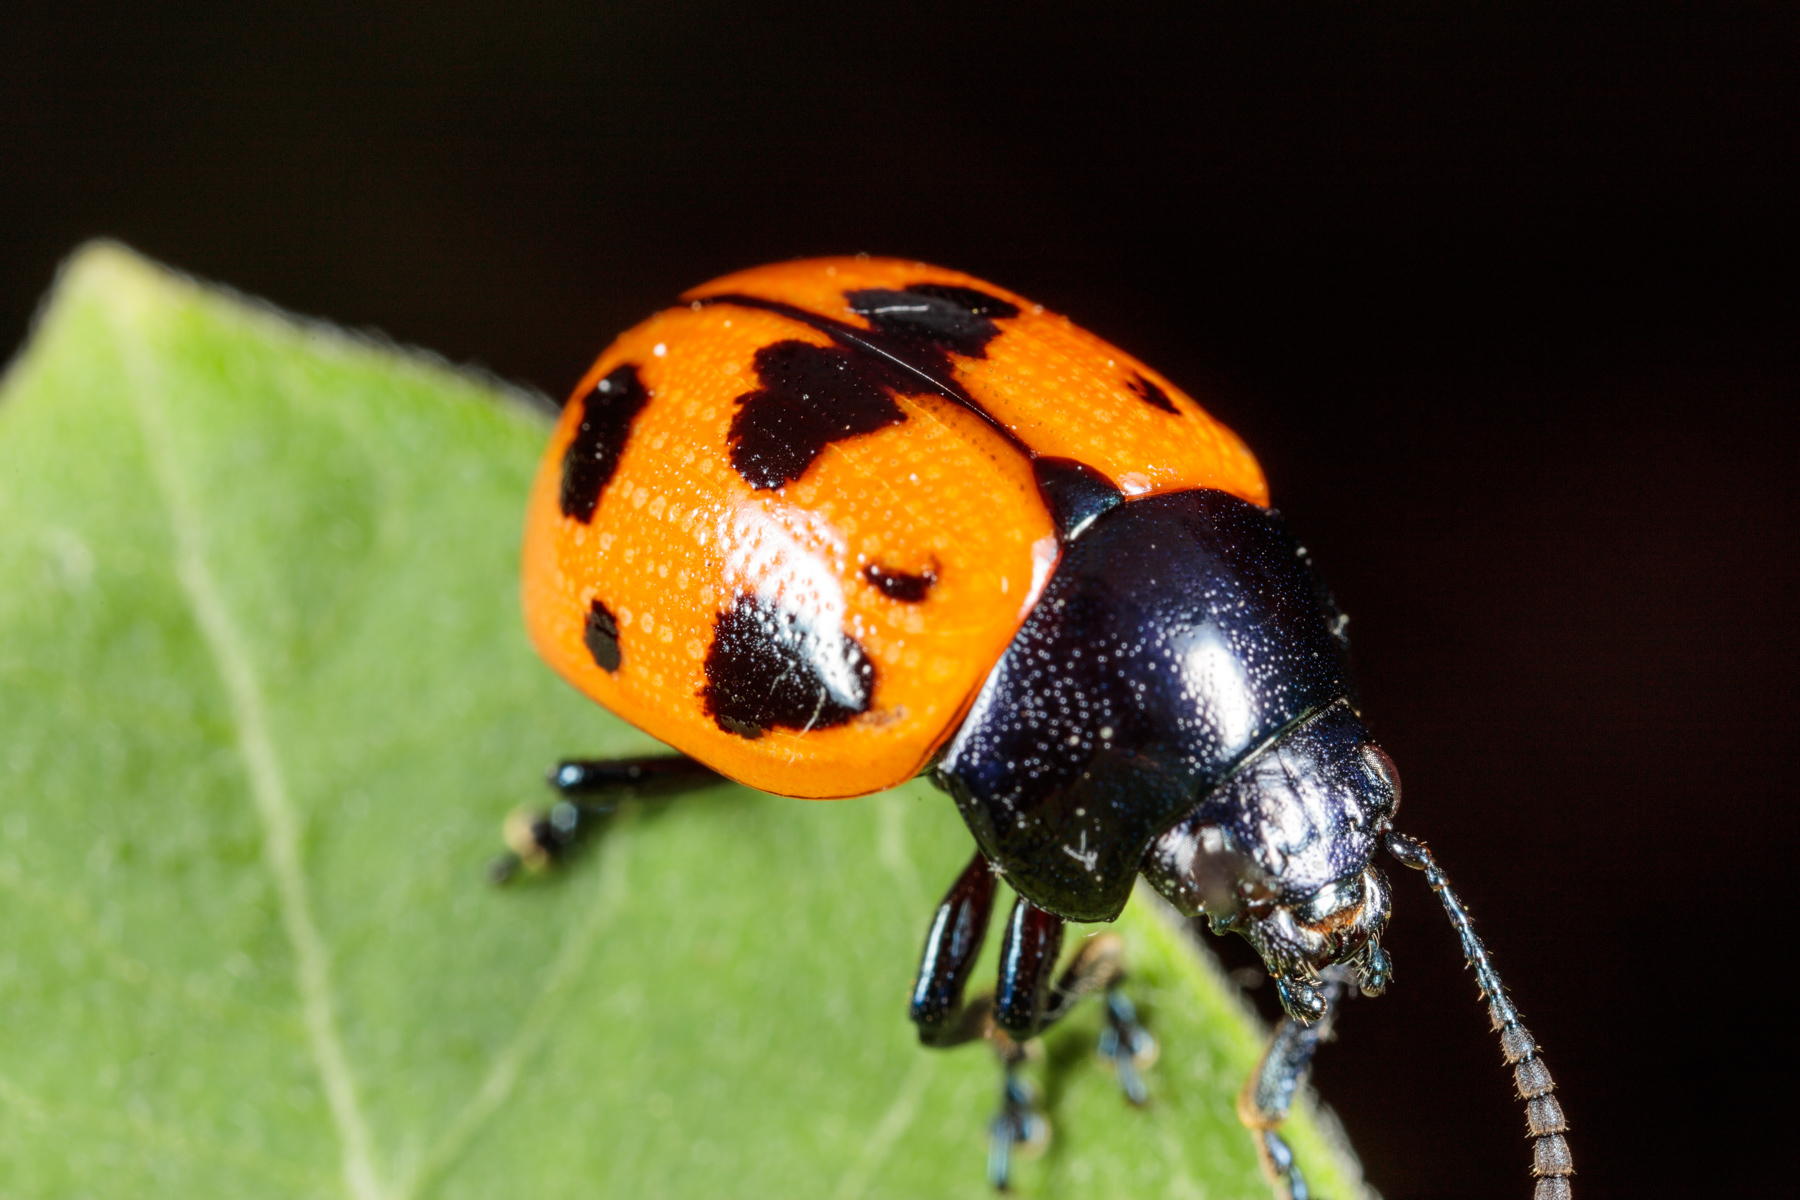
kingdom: Animalia
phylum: Arthropoda
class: Insecta
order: Coleoptera
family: Chrysomelidae
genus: Labidomera
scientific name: Labidomera clivicollis
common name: Swamp milkweed leaf beetle
